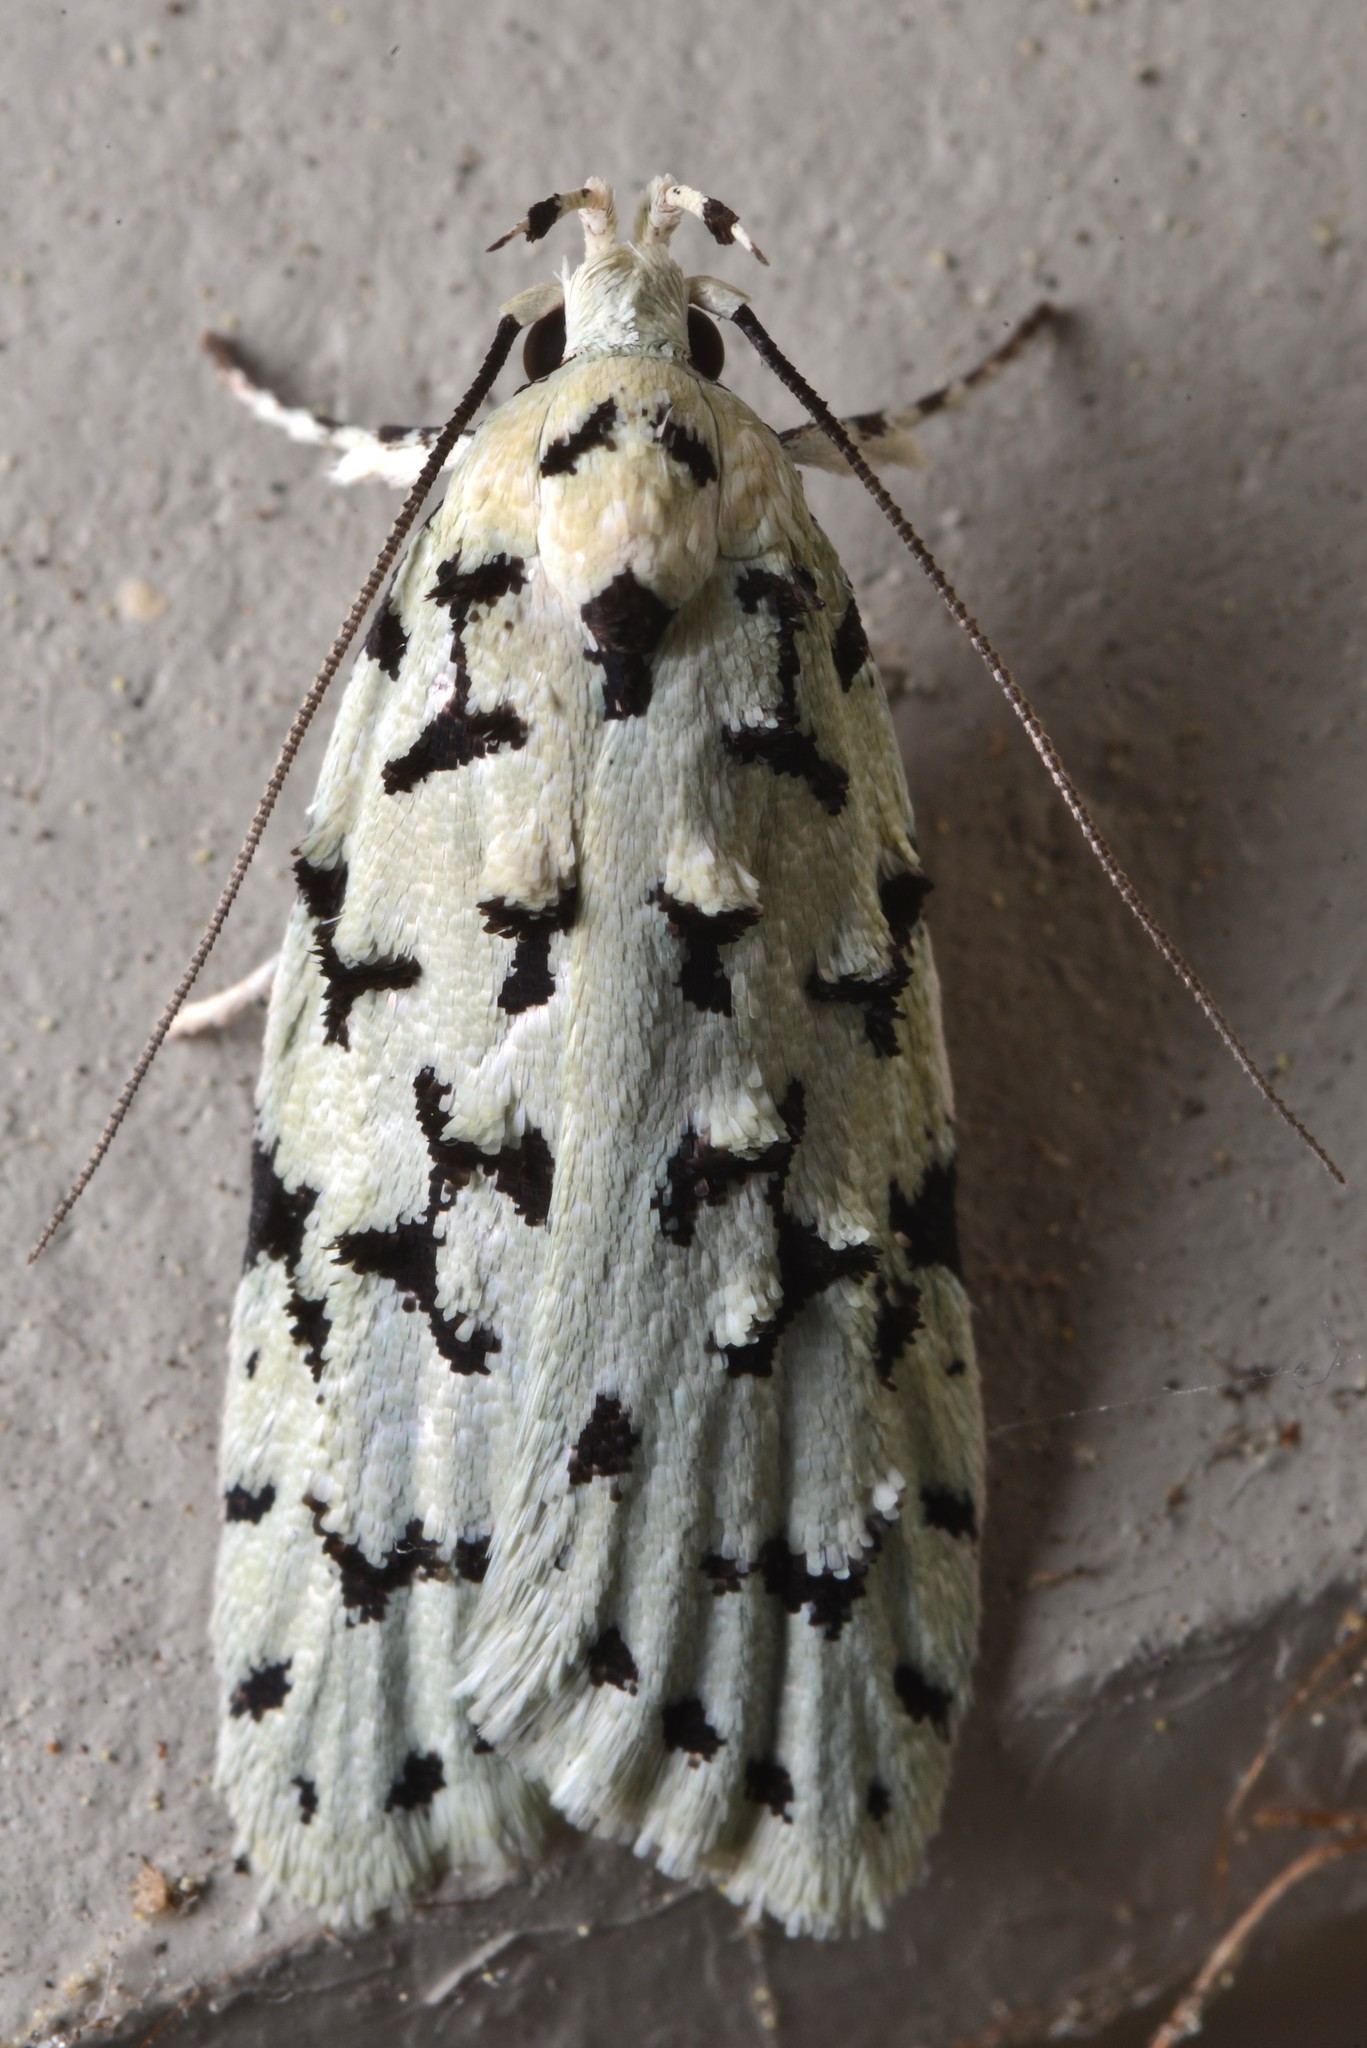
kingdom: Animalia
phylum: Arthropoda
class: Insecta
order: Lepidoptera
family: Oecophoridae
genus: Izatha
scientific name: Izatha huttoni
